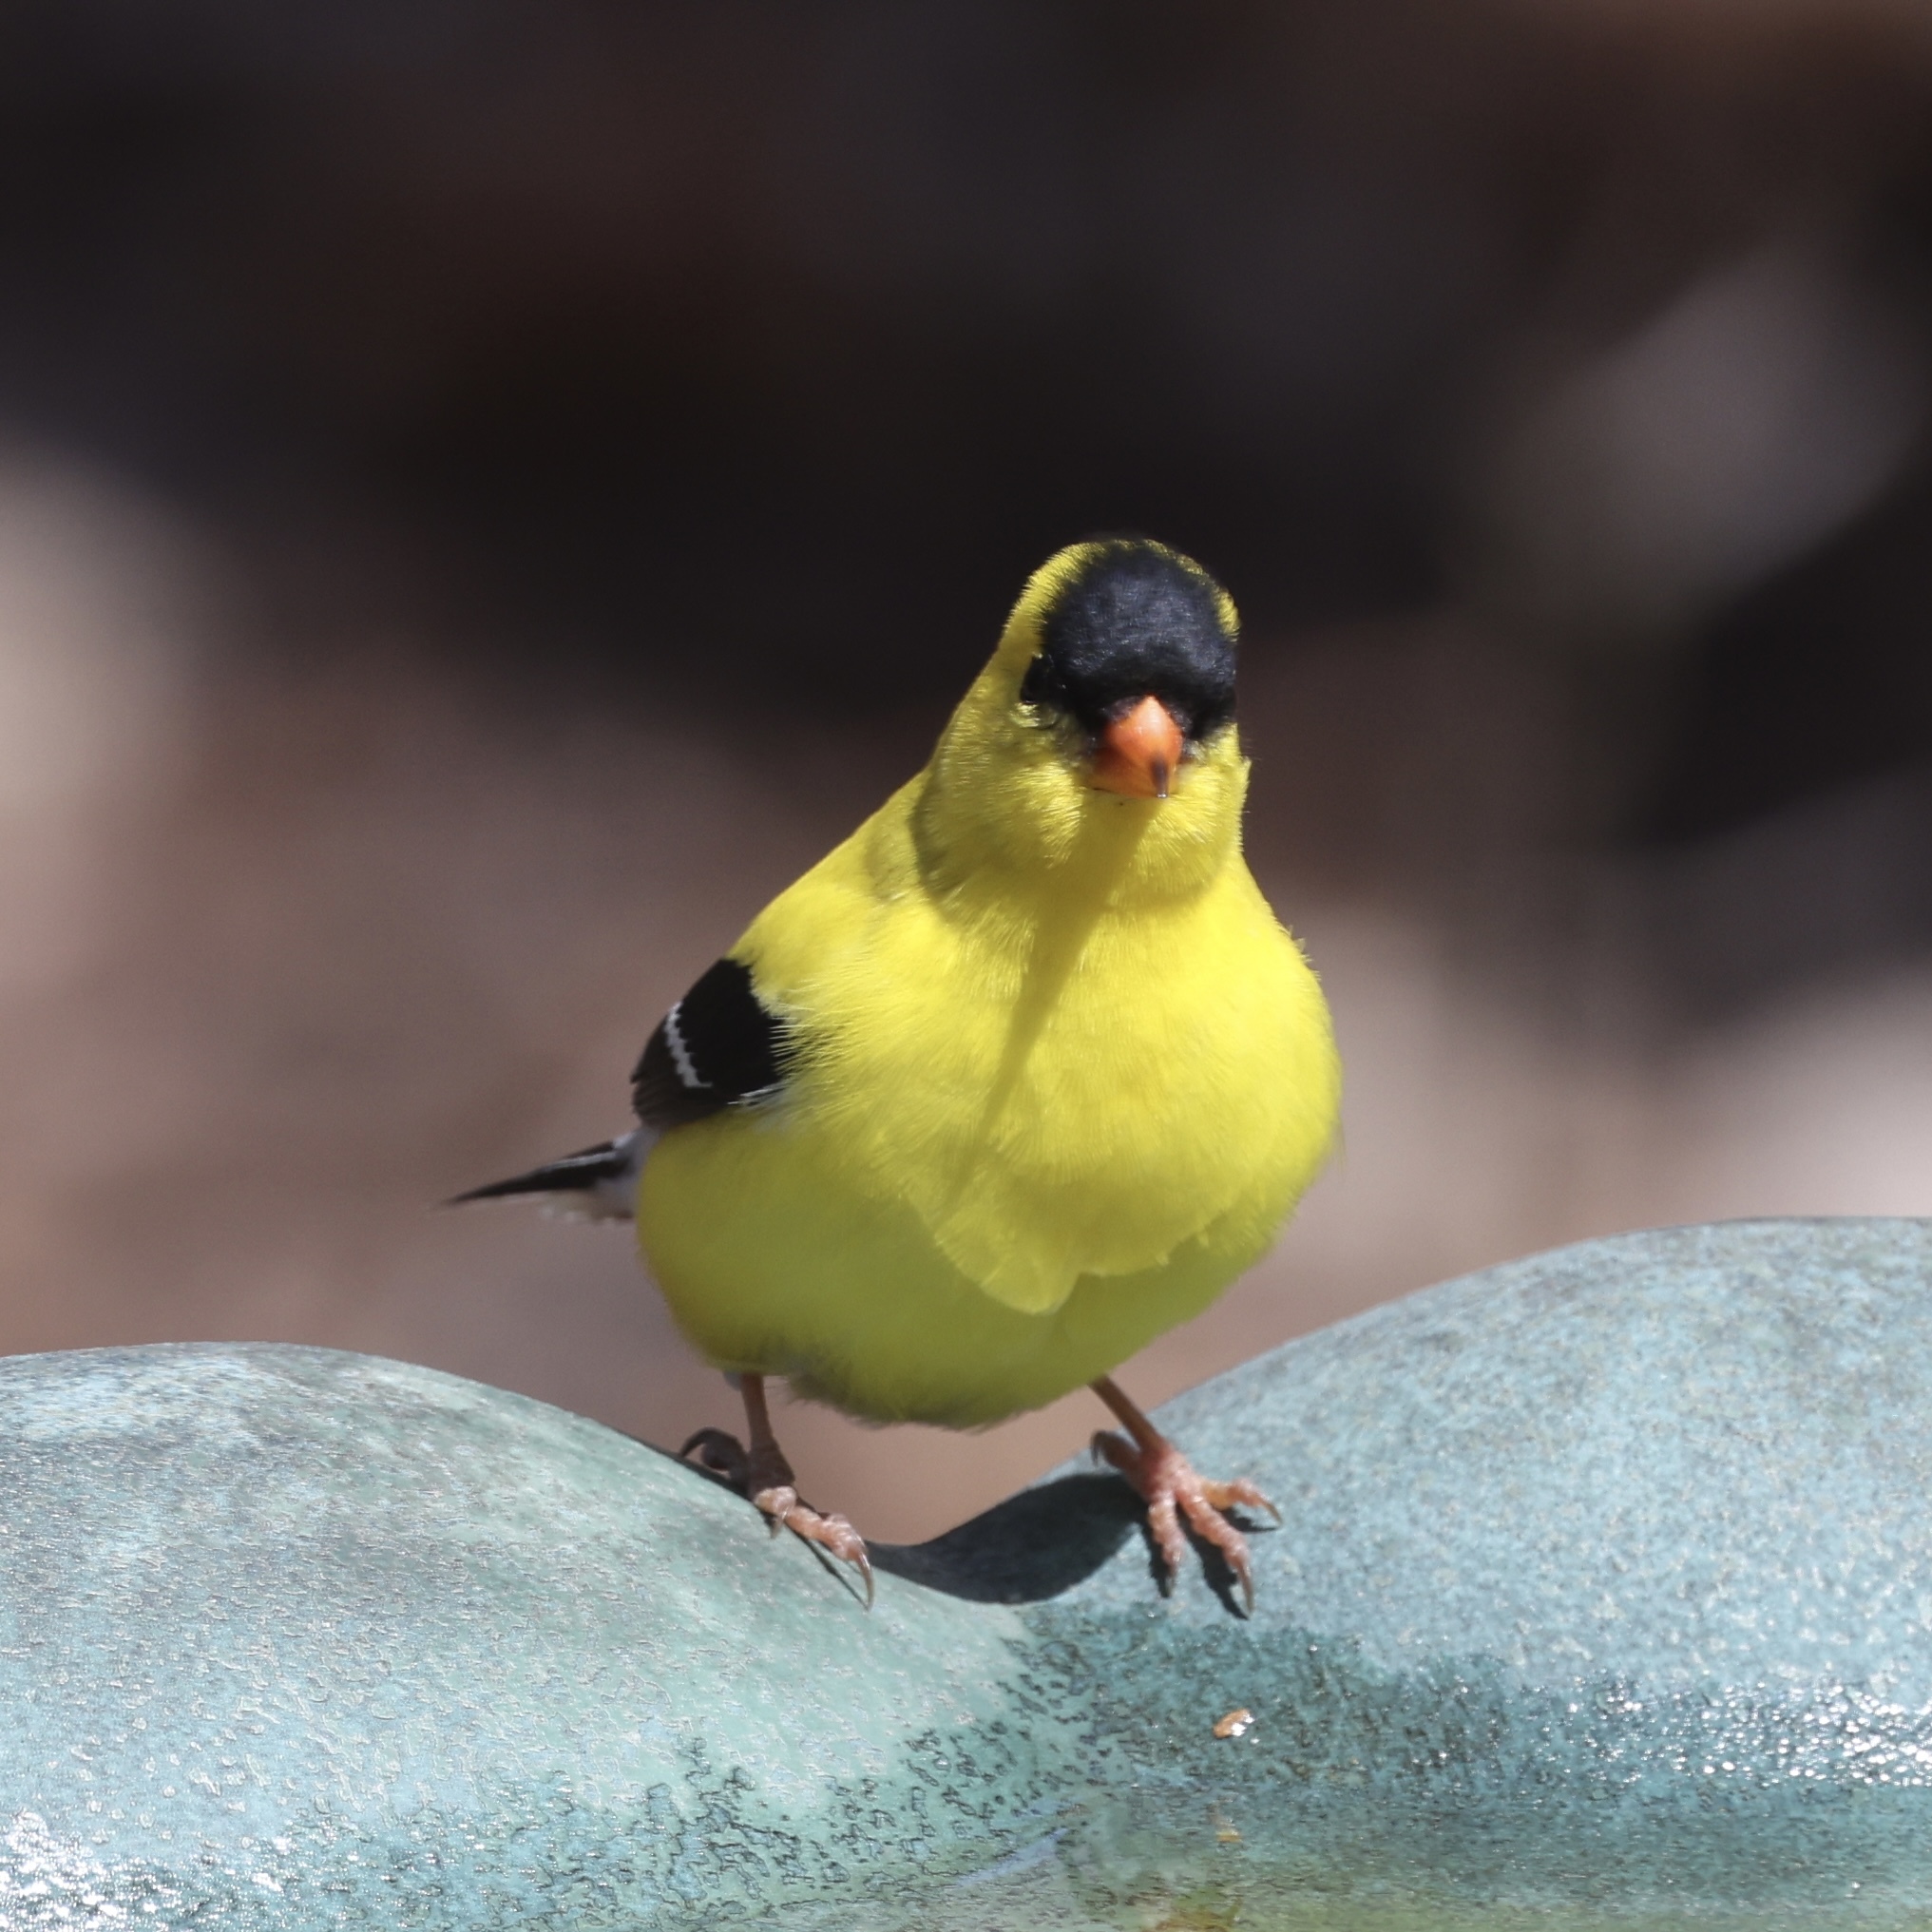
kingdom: Animalia
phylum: Chordata
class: Aves
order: Passeriformes
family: Fringillidae
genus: Spinus
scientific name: Spinus tristis
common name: American goldfinch
